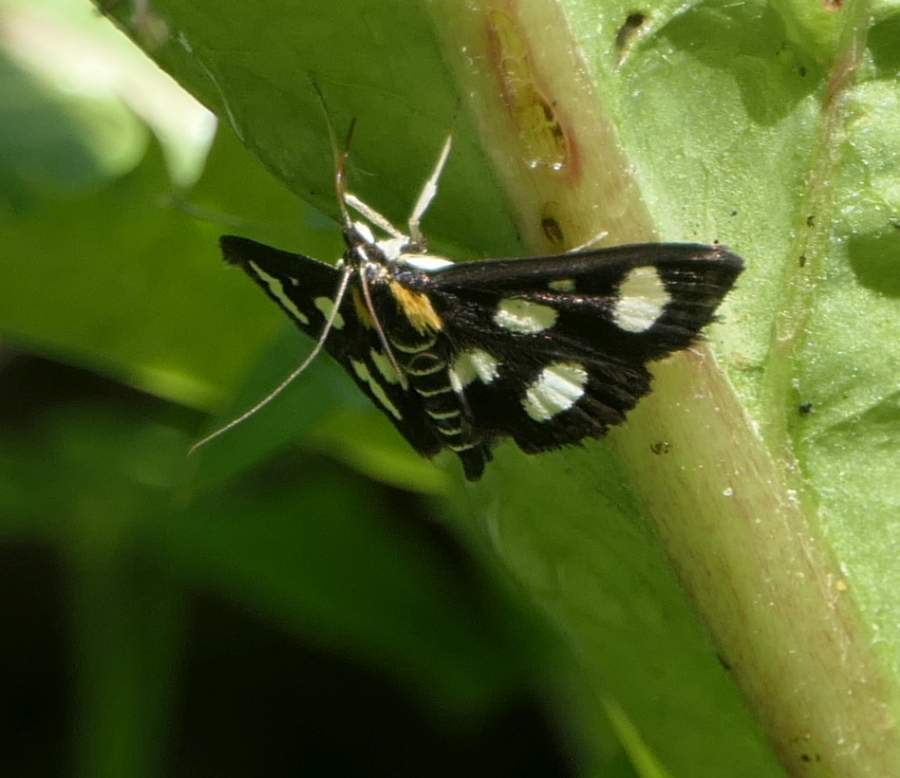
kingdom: Animalia
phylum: Arthropoda
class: Insecta
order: Lepidoptera
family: Crambidae
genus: Anania
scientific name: Anania funebris
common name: White-spotted sable moth
